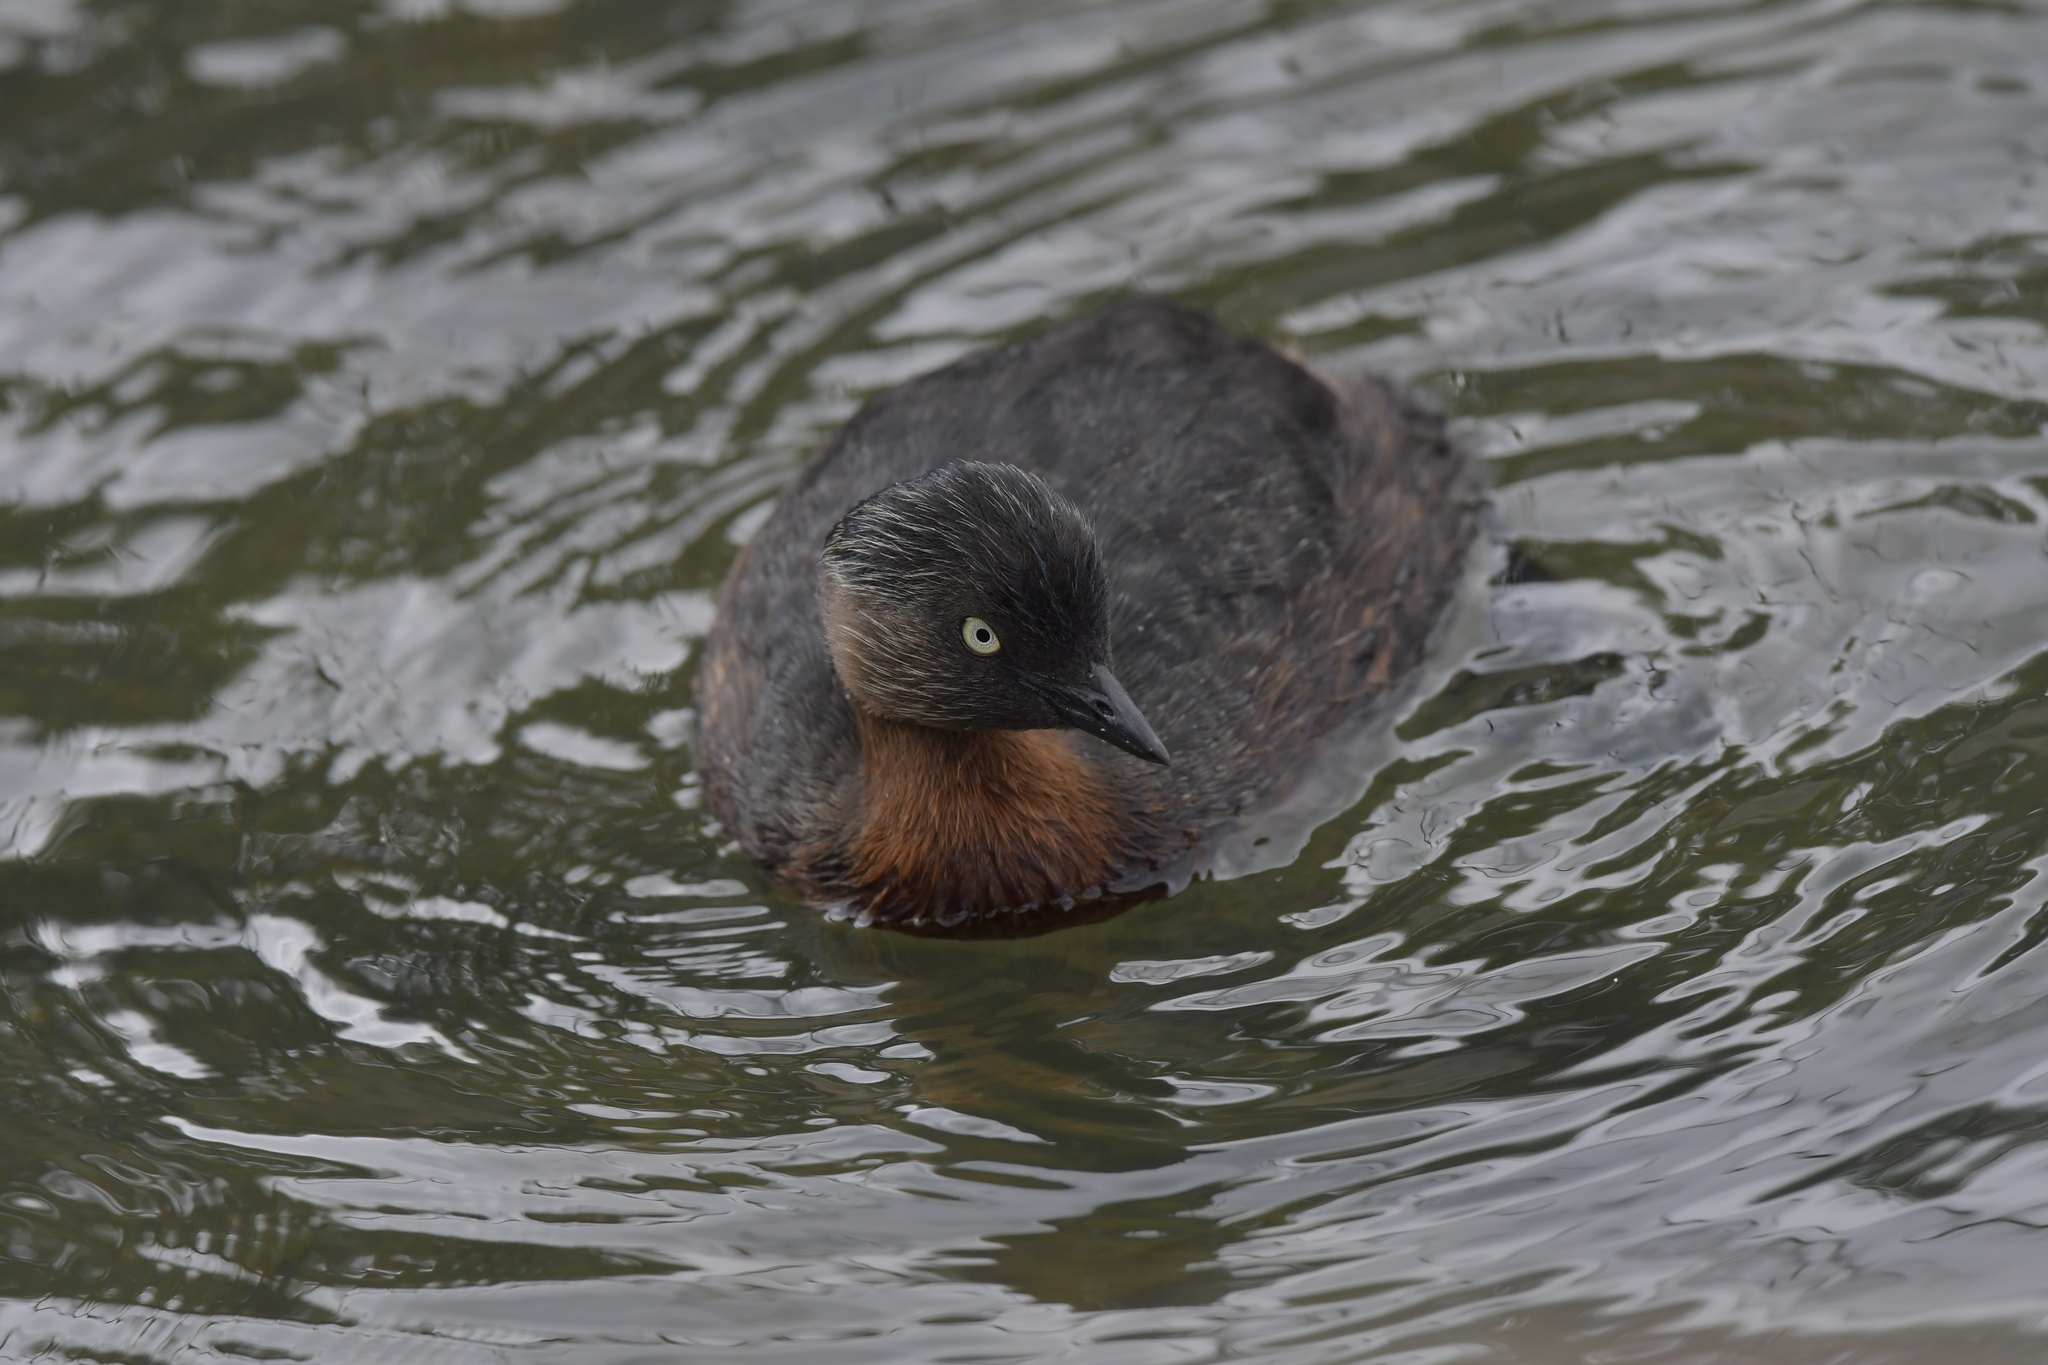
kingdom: Animalia
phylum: Chordata
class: Aves
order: Podicipediformes
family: Podicipedidae
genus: Poliocephalus
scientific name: Poliocephalus rufopectus
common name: New zealand grebe
